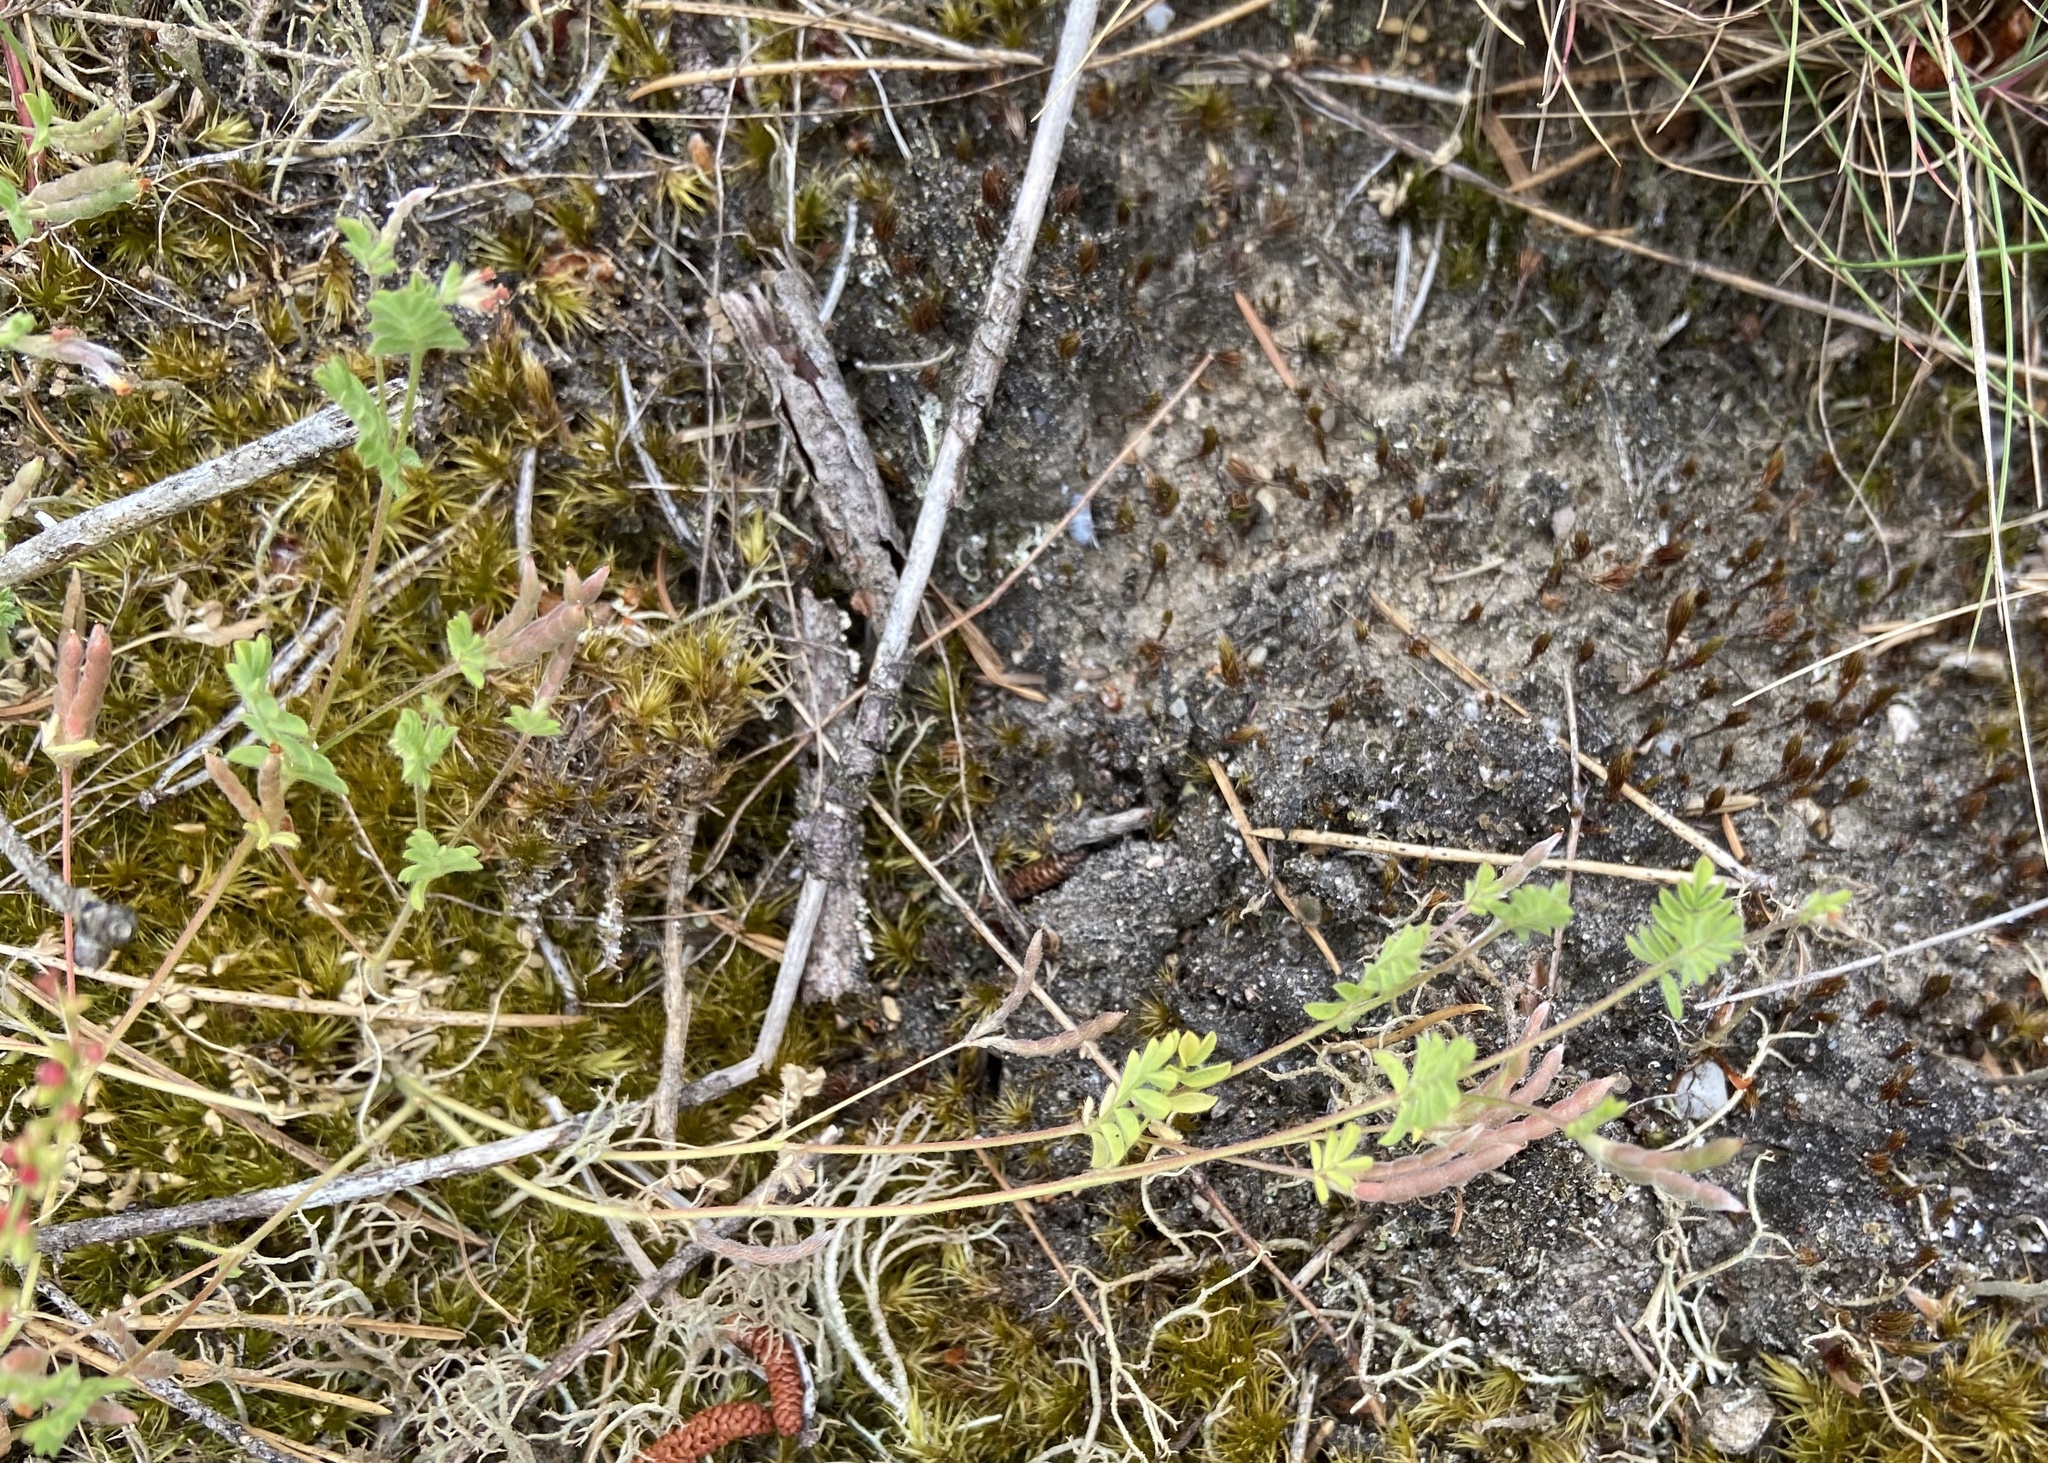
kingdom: Plantae
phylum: Tracheophyta
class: Magnoliopsida
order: Fabales
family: Fabaceae
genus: Ornithopus
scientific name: Ornithopus perpusillus
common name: Bird's-foot
